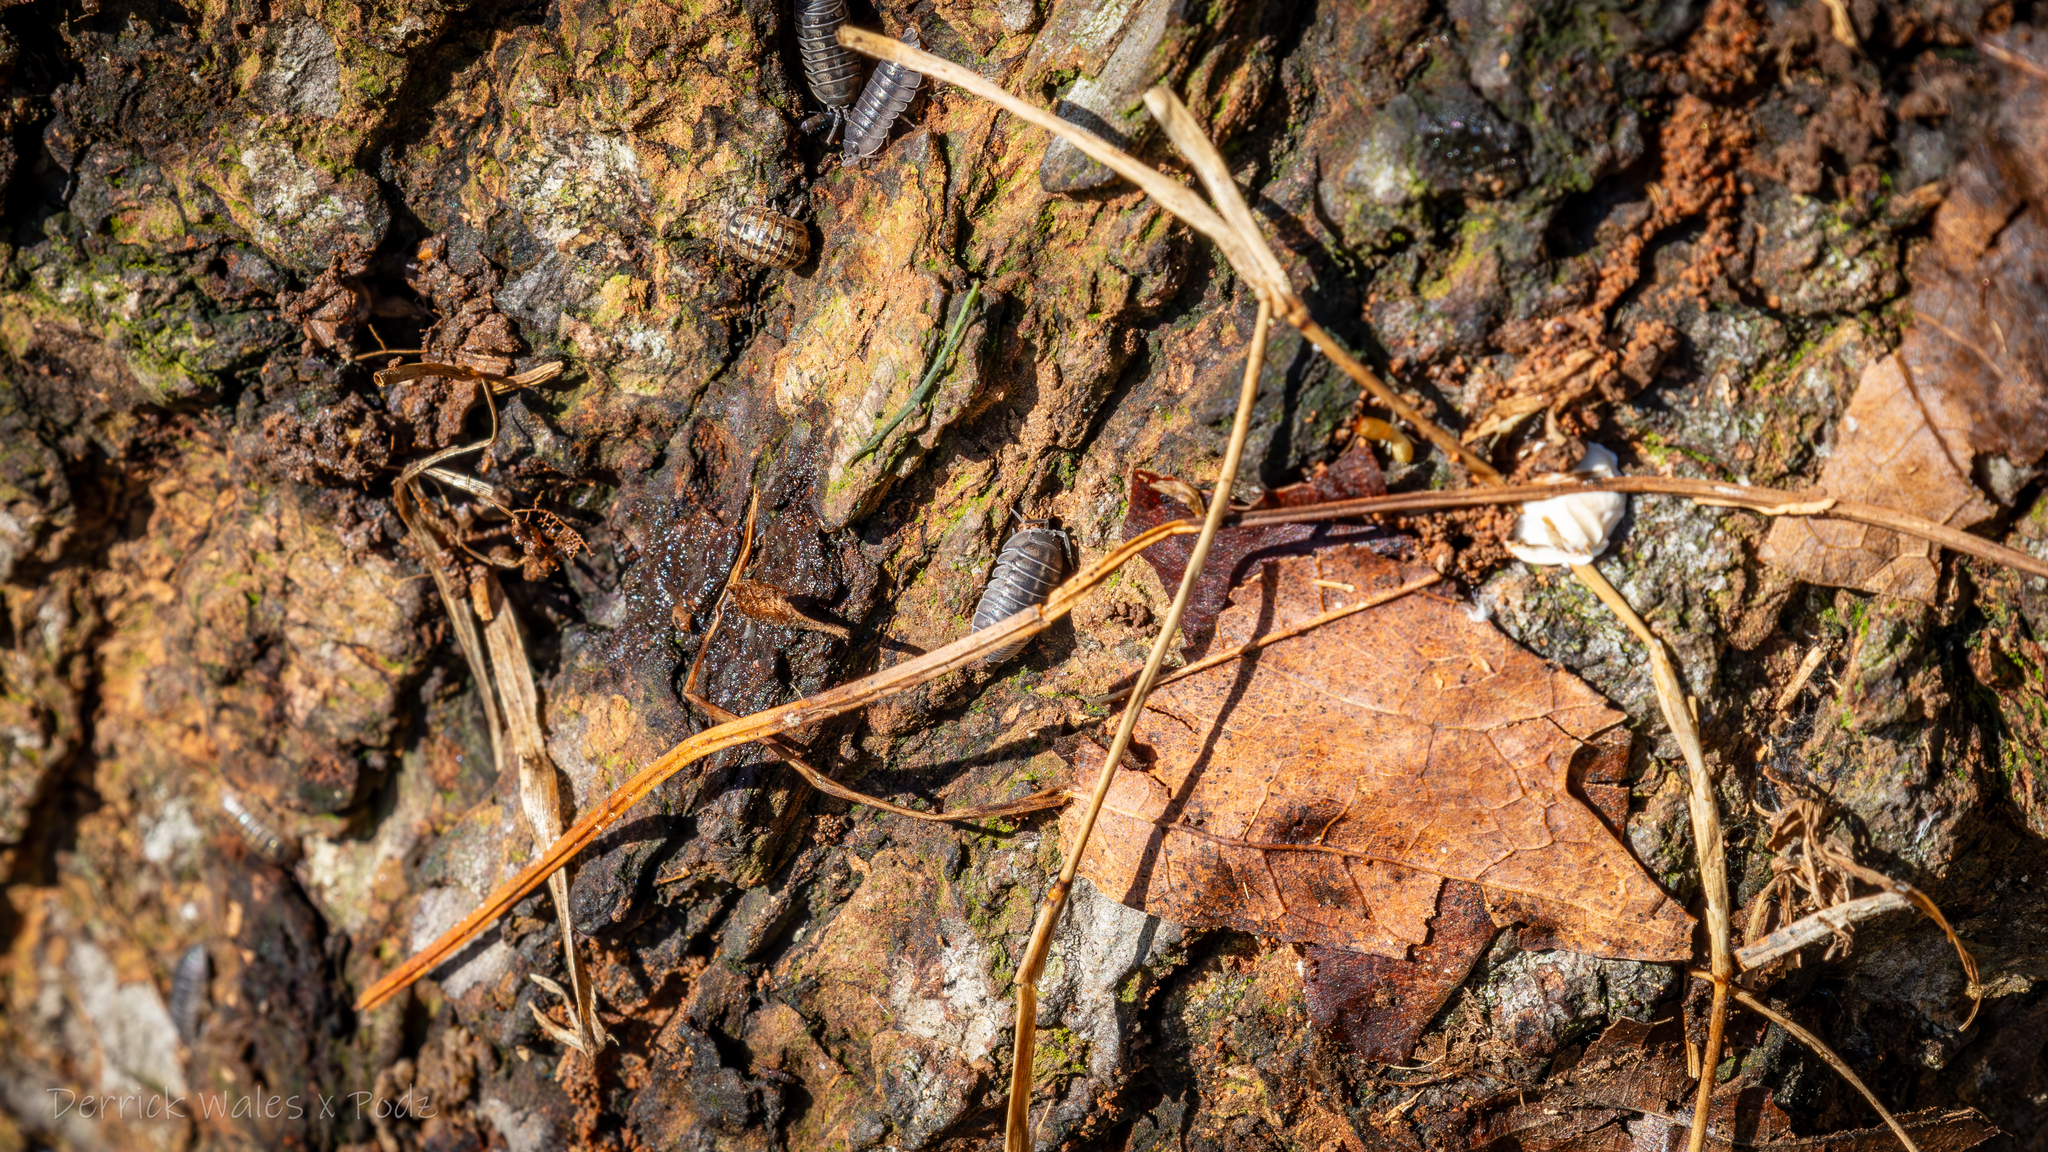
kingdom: Animalia
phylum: Arthropoda
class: Malacostraca
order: Isopoda
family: Armadillidiidae
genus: Armadillidium
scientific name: Armadillidium nasatum
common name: Isopod
